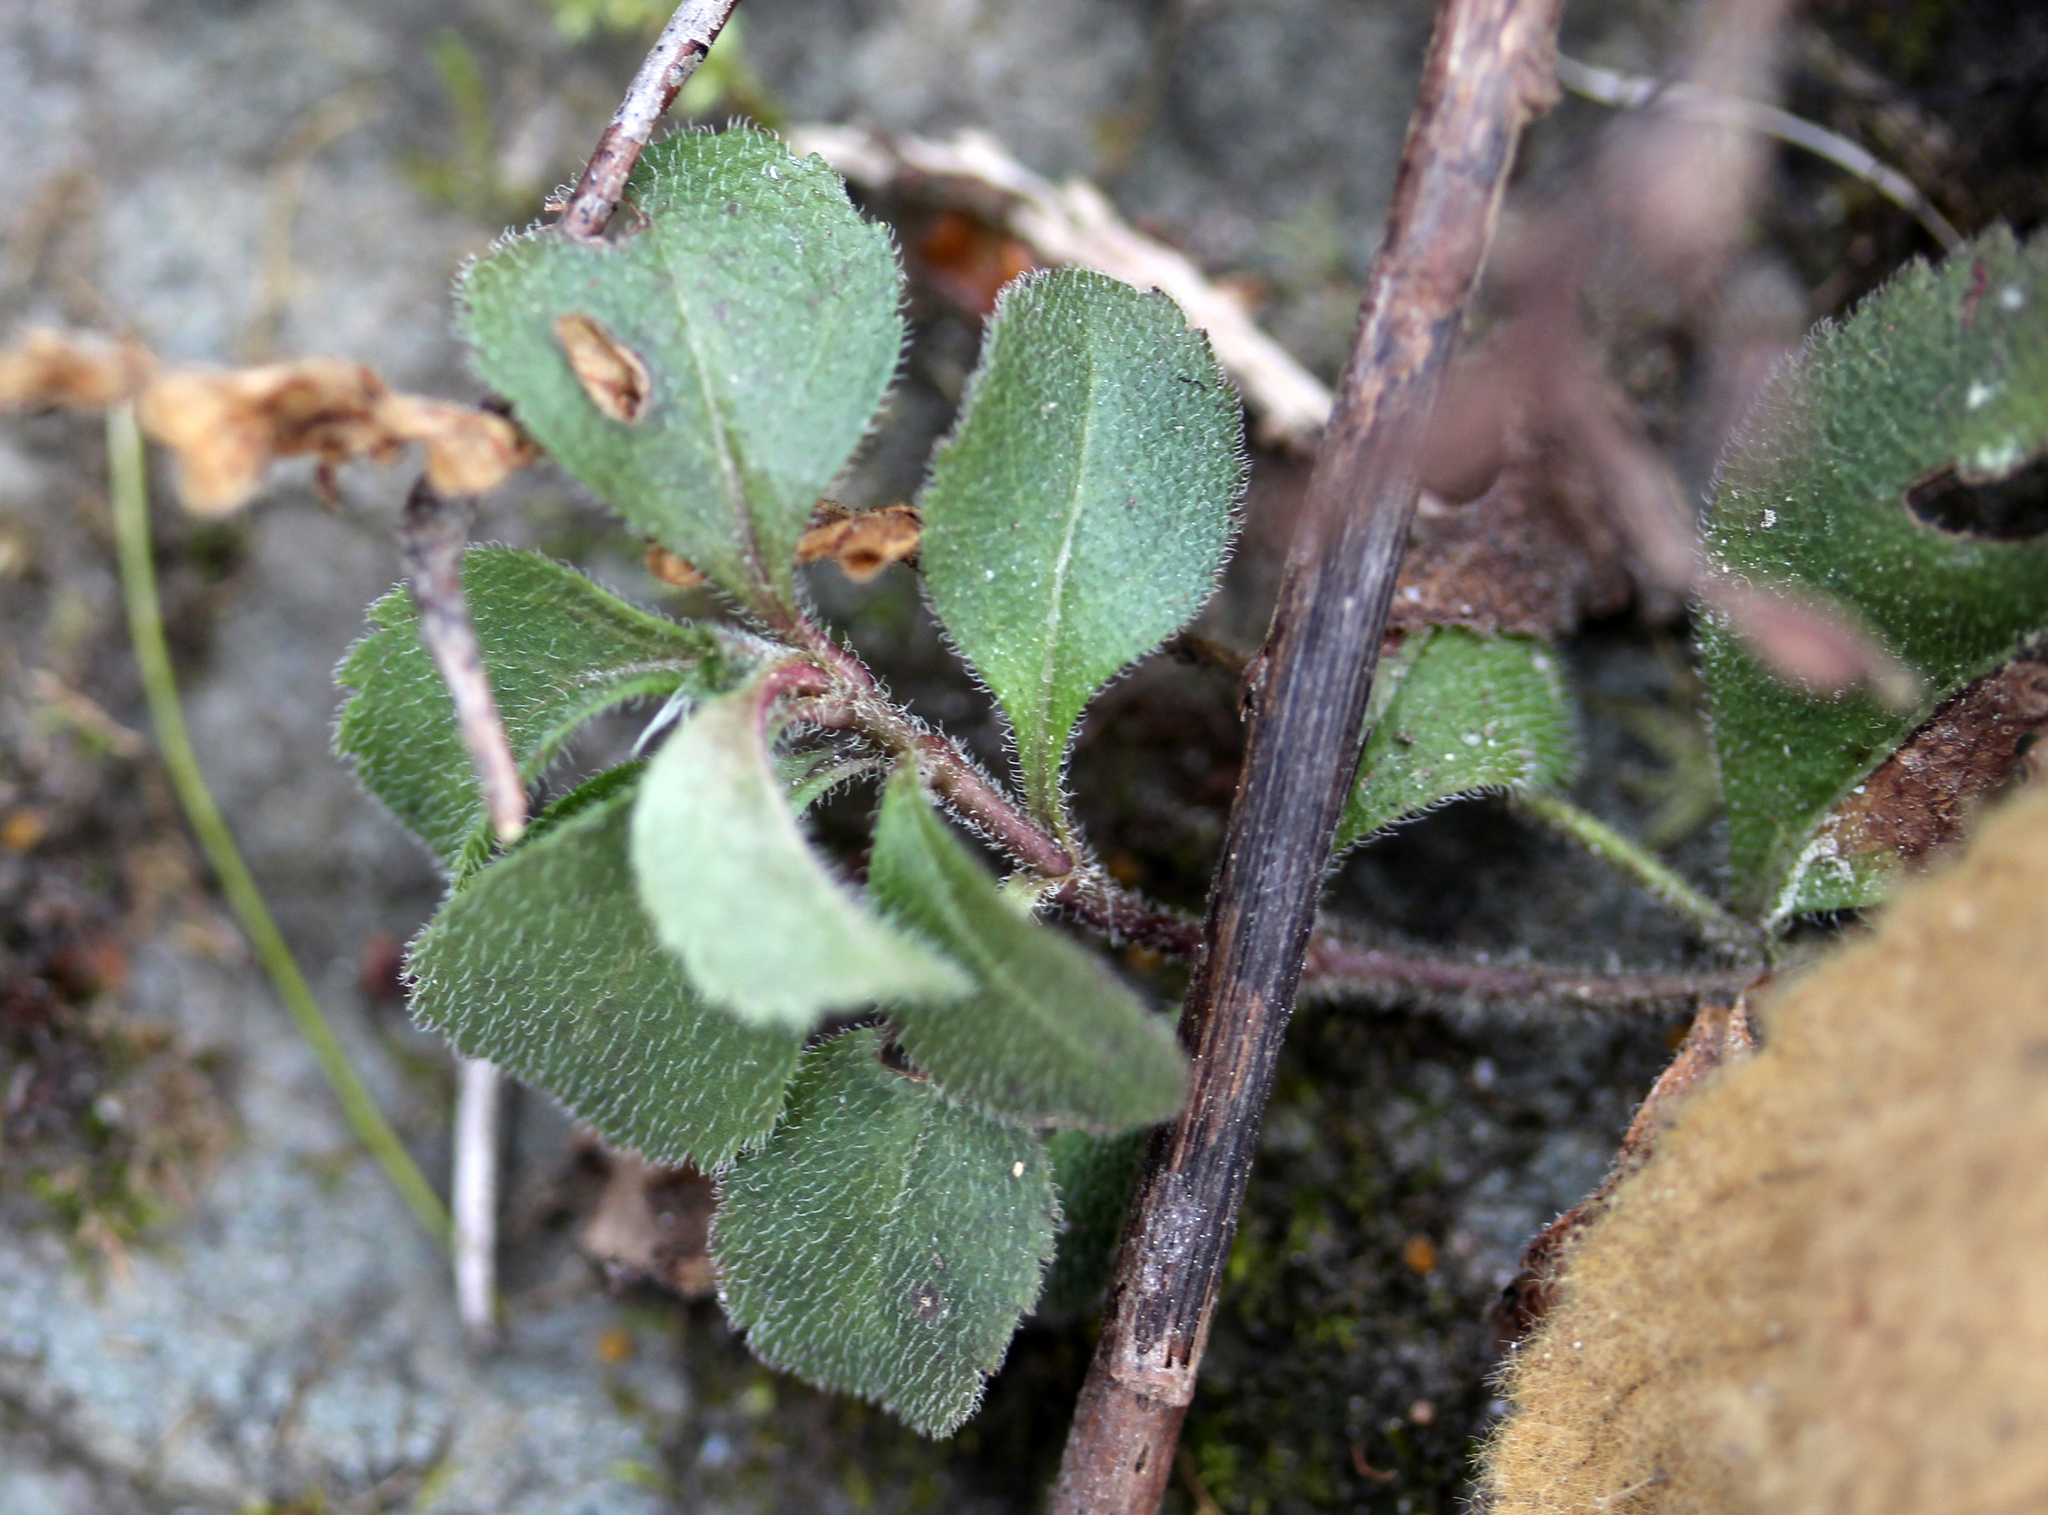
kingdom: Plantae
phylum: Tracheophyta
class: Magnoliopsida
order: Lamiales
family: Plantaginaceae
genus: Veronica
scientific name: Veronica officinalis
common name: Common speedwell
